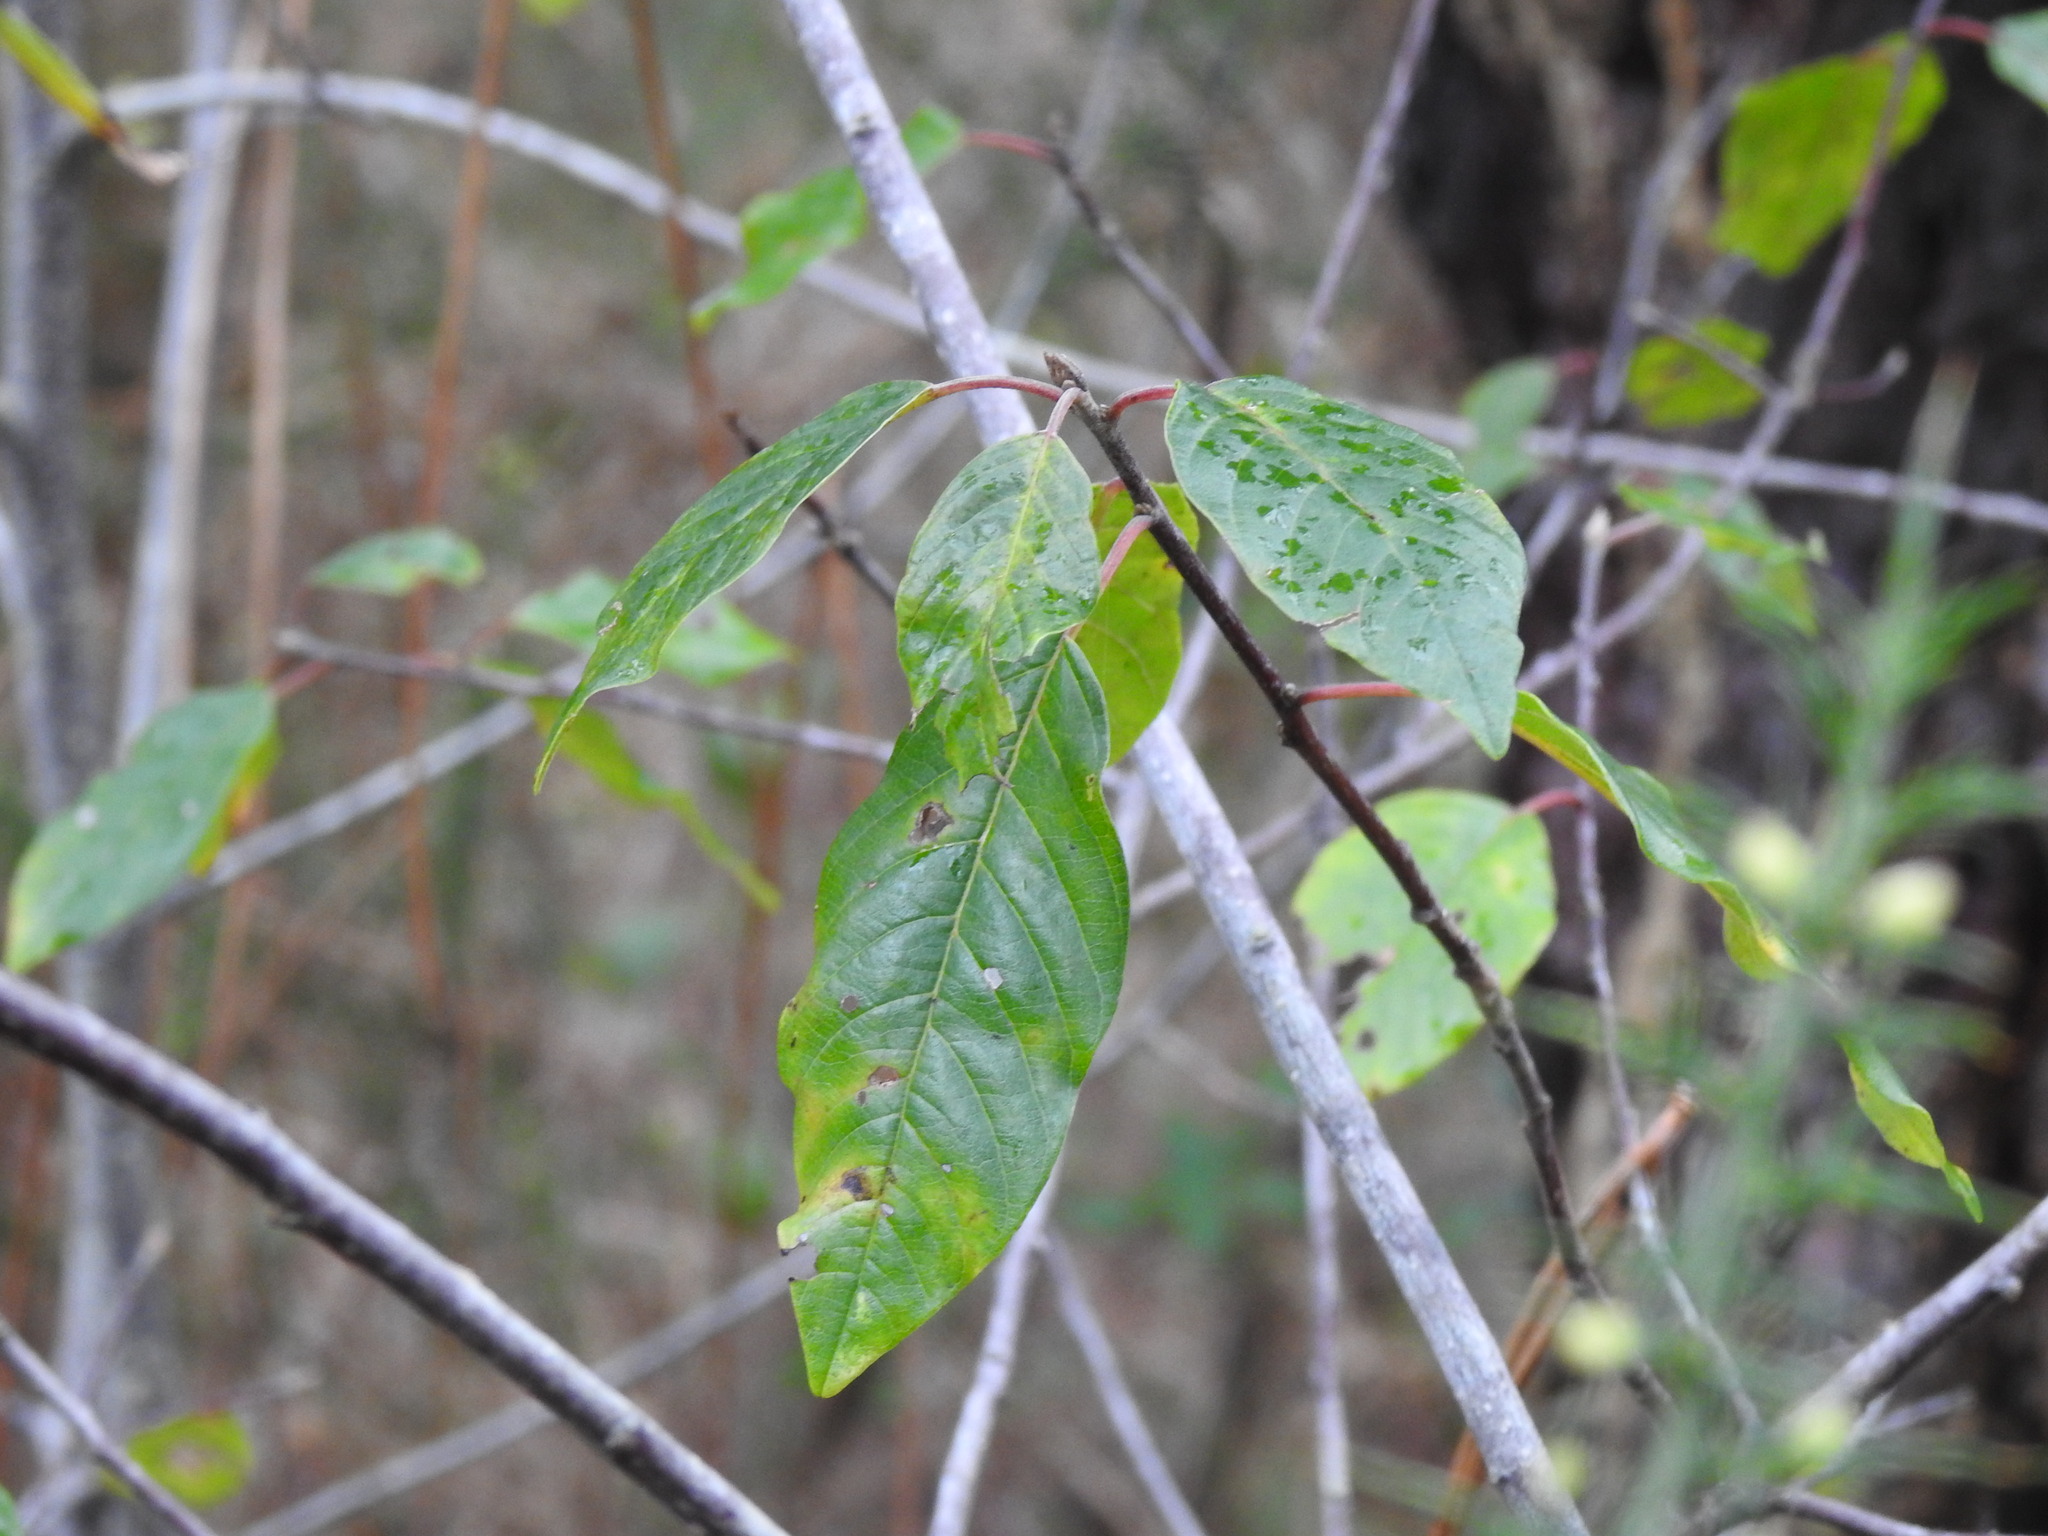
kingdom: Plantae
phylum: Tracheophyta
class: Magnoliopsida
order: Rosales
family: Rhamnaceae
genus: Frangula
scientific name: Frangula alnus
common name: Alder buckthorn
